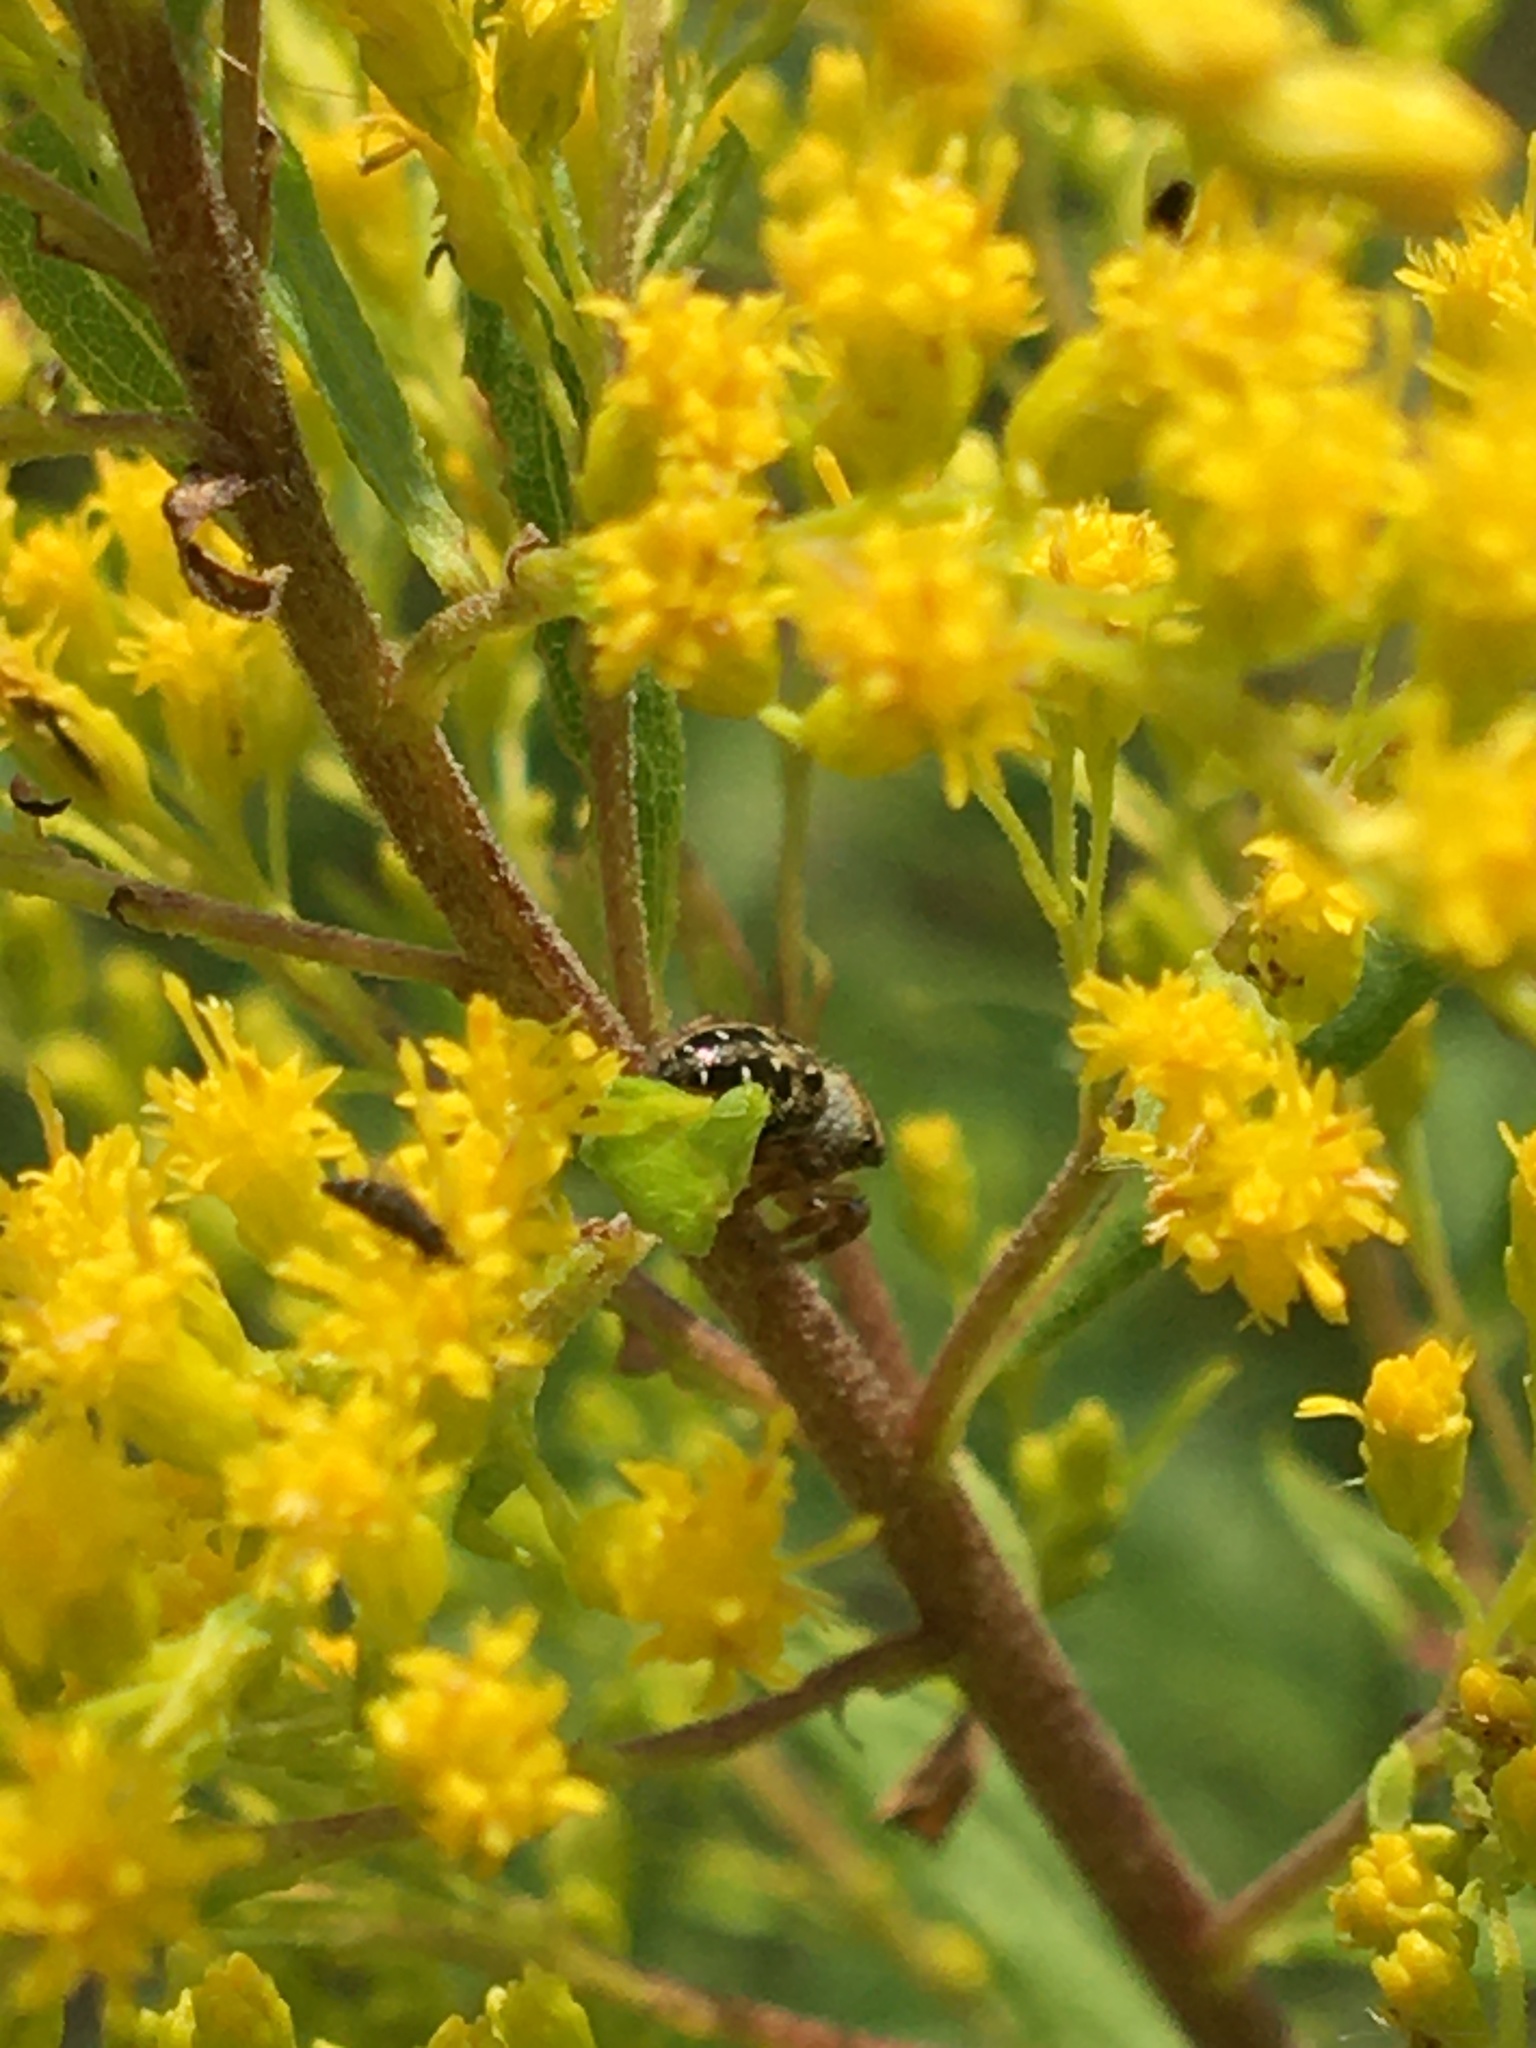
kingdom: Animalia
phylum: Arthropoda
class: Arachnida
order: Araneae
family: Salticidae
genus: Phidippus
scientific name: Phidippus princeps
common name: Grayish jumping spider
